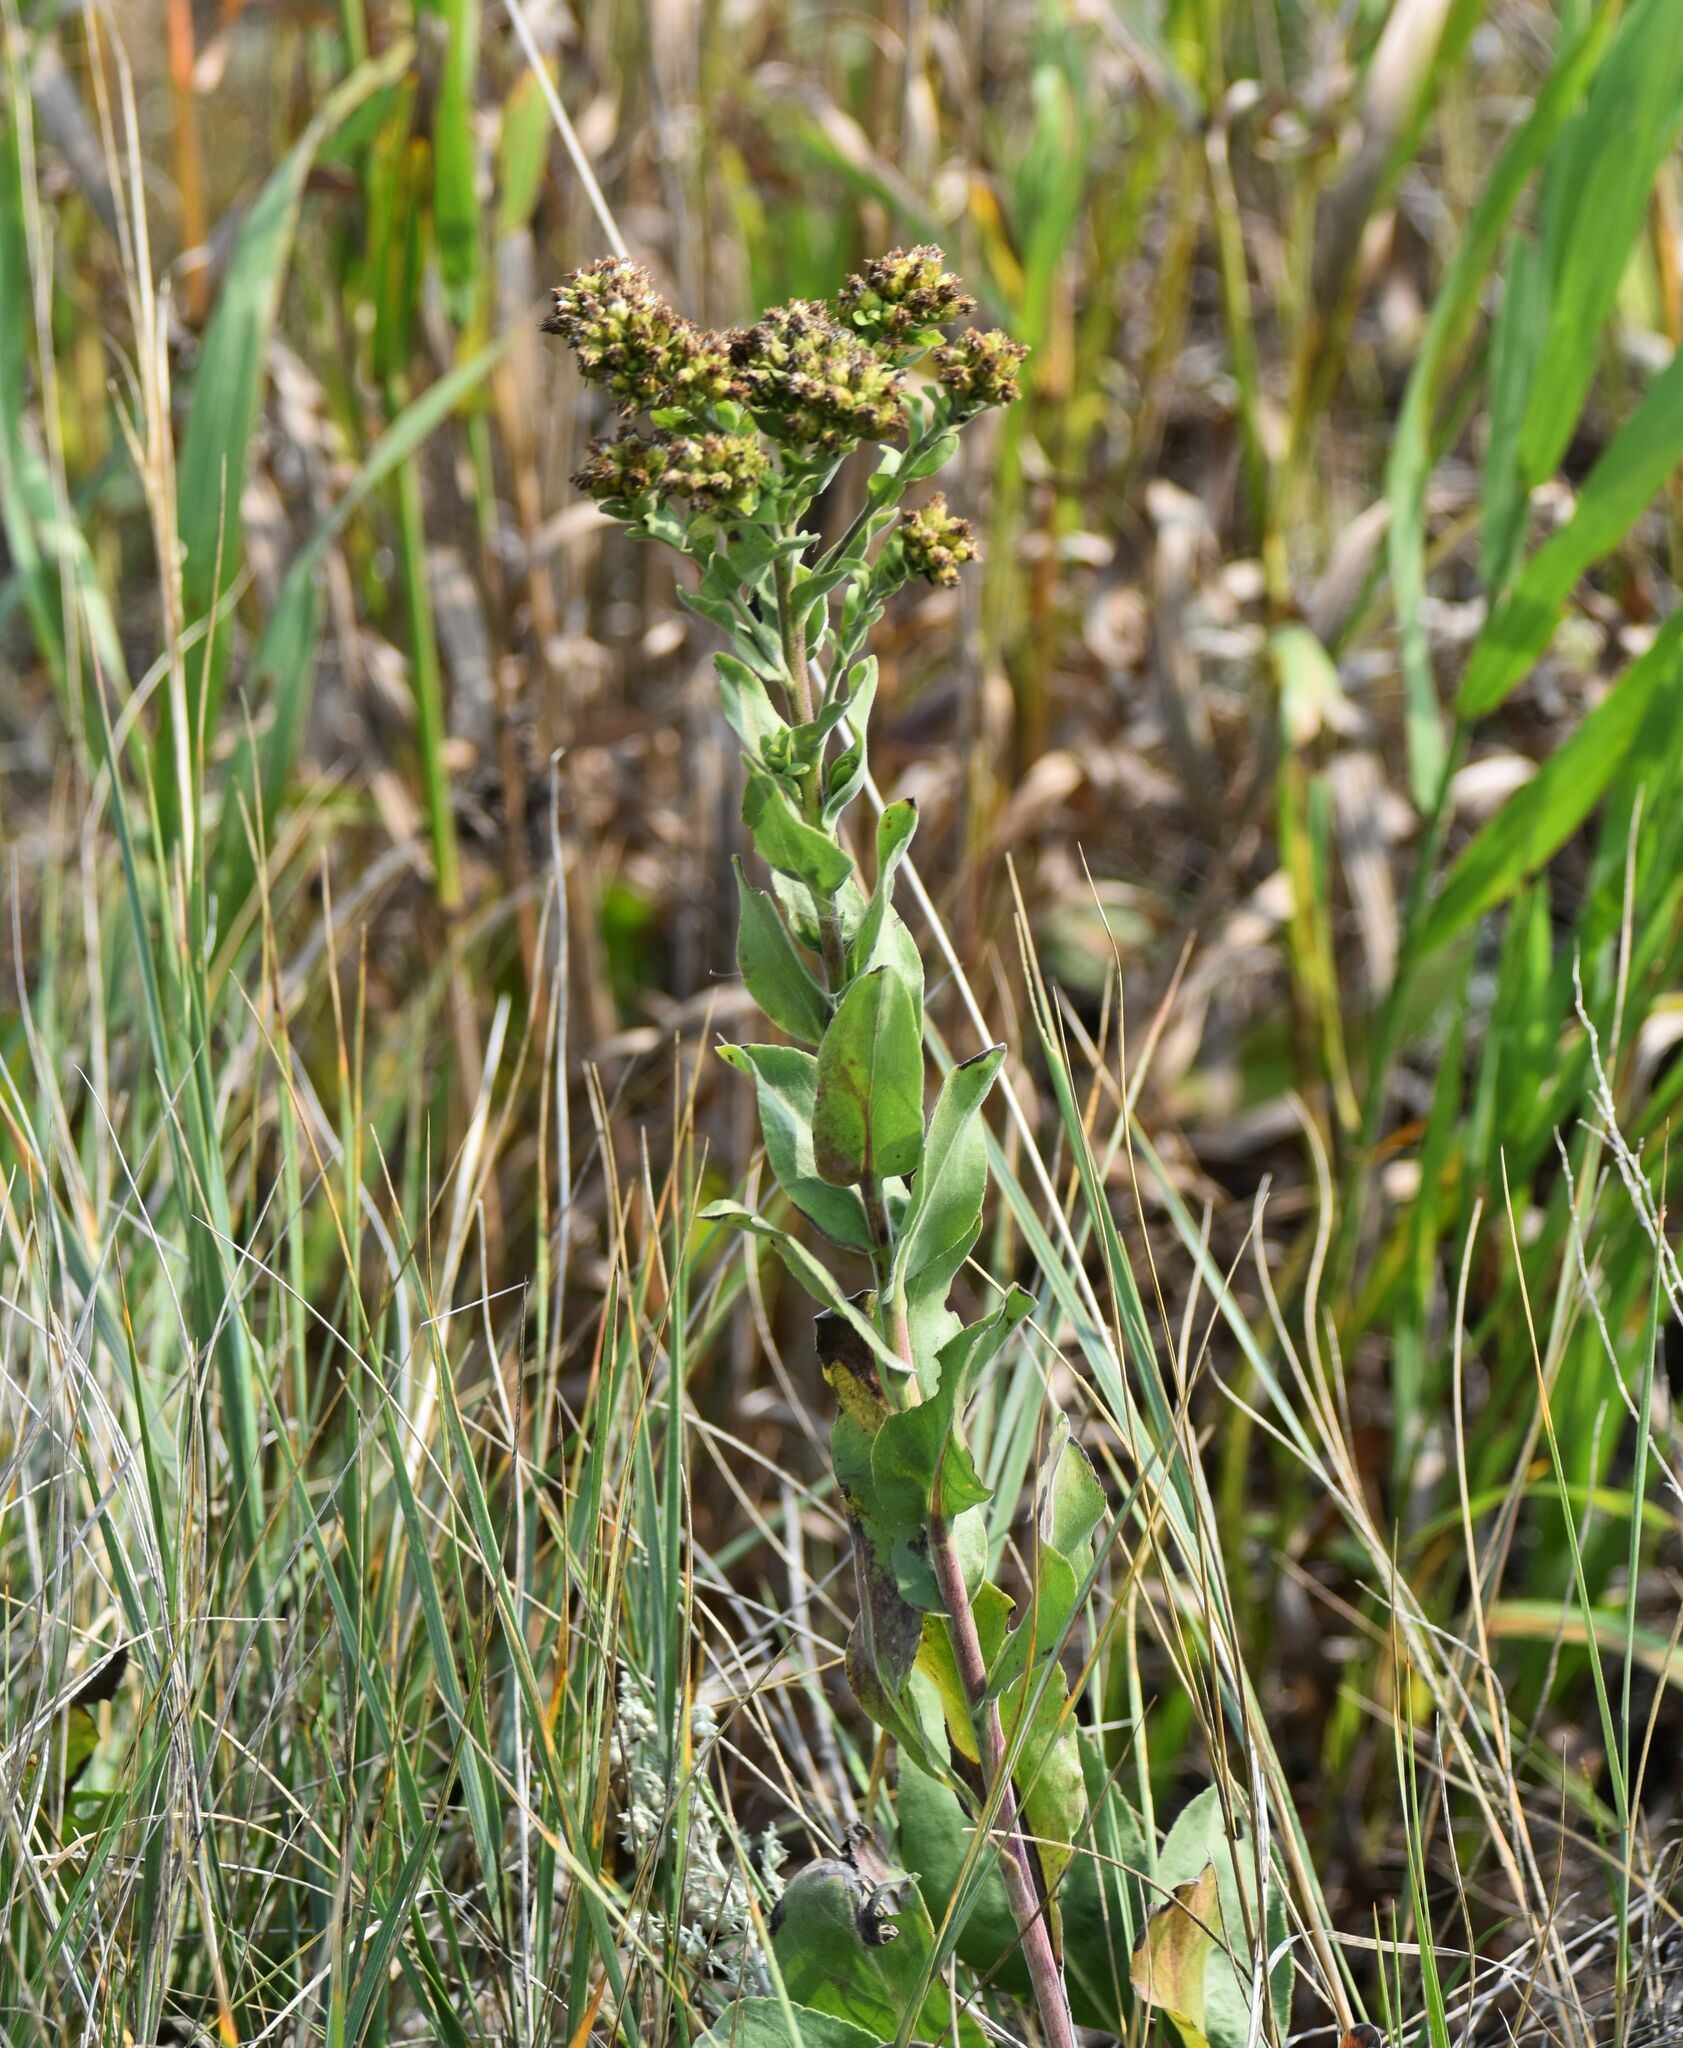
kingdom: Plantae
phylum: Tracheophyta
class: Magnoliopsida
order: Asterales
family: Asteraceae
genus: Solidago
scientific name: Solidago rigida
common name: Rigid goldenrod
